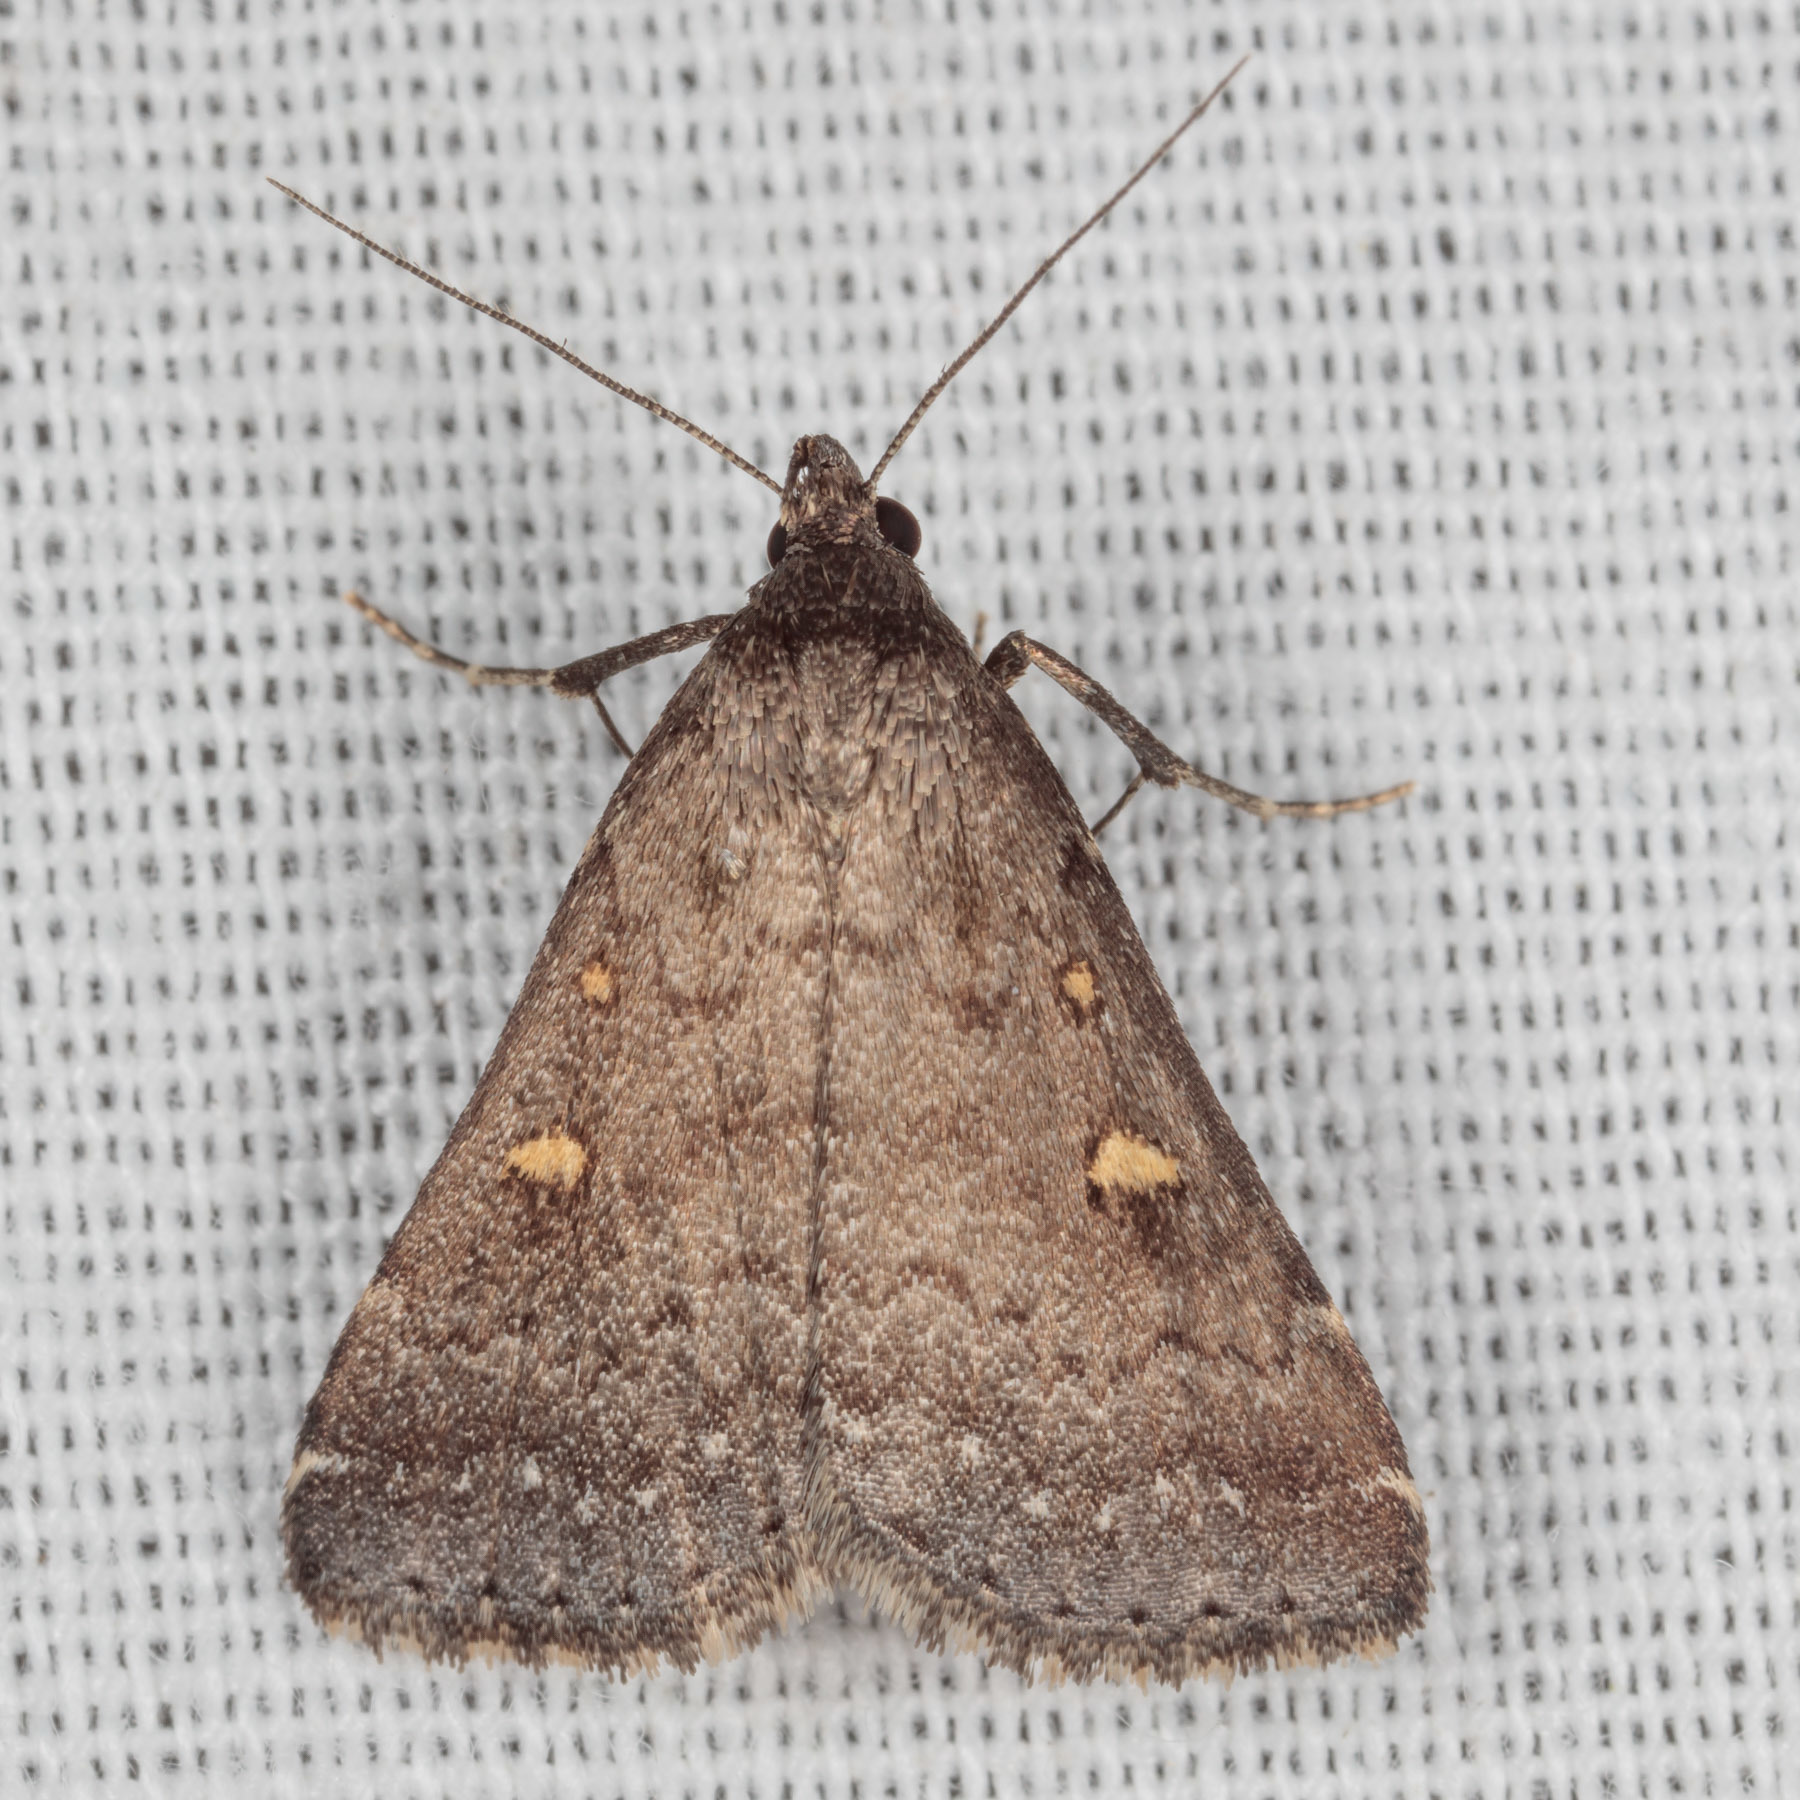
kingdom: Animalia
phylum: Arthropoda
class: Insecta
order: Lepidoptera
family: Erebidae
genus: Tetanolita
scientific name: Tetanolita mynesalis
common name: Smoky tetanolita moth
